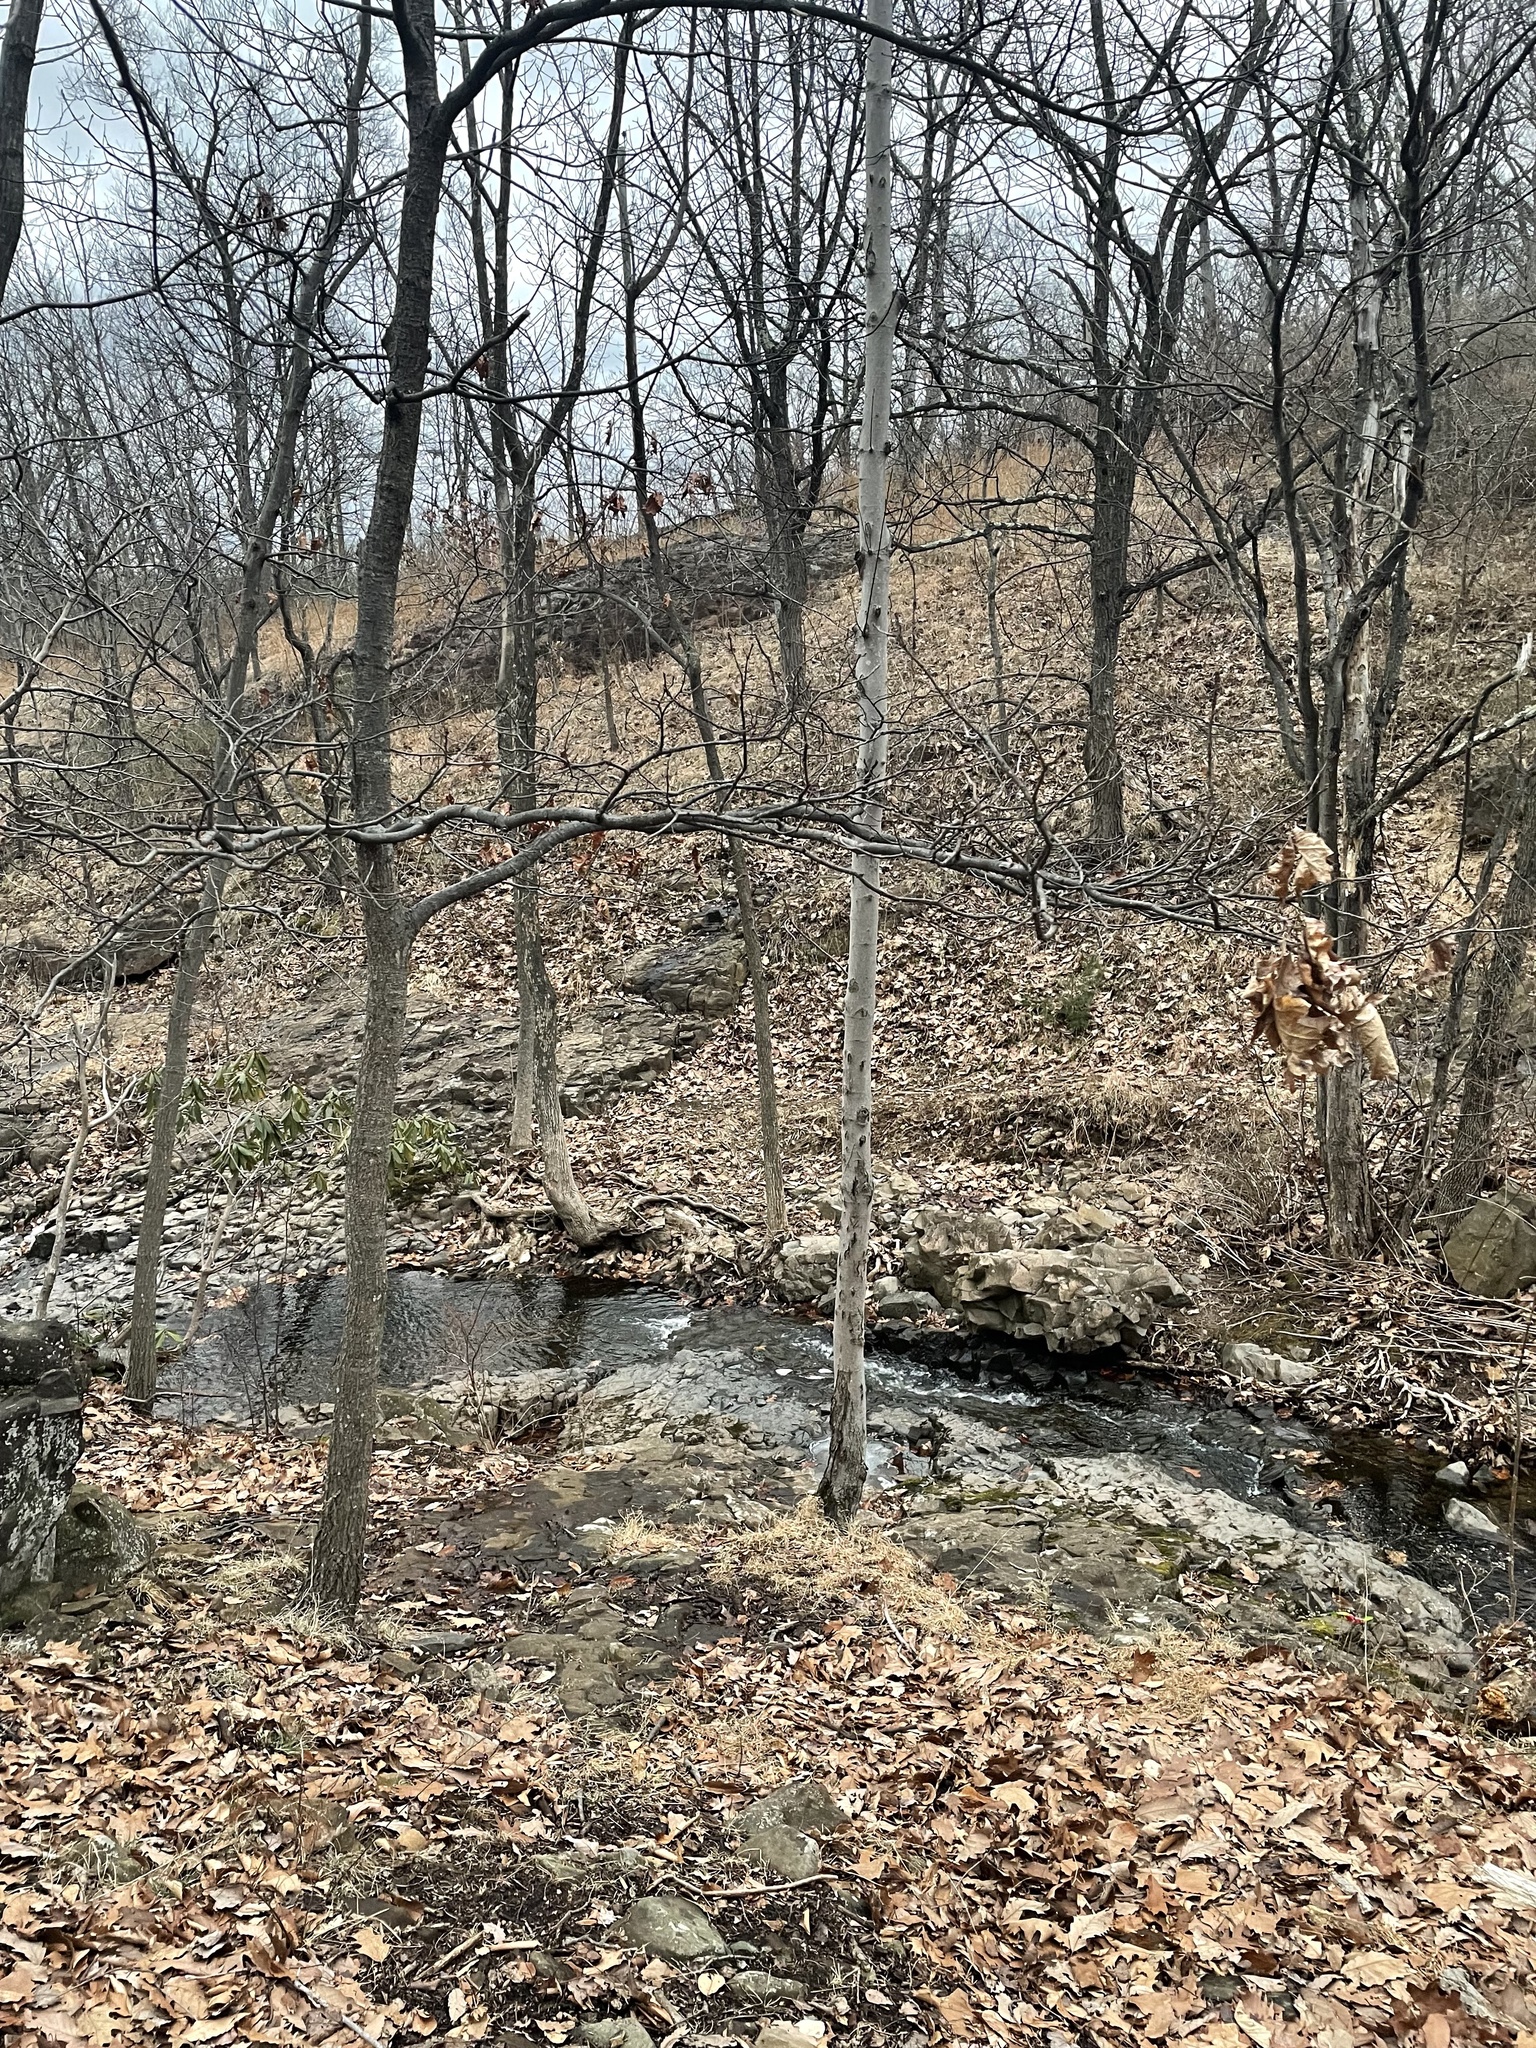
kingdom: Plantae
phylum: Tracheophyta
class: Magnoliopsida
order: Fagales
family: Fagaceae
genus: Quercus
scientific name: Quercus rubra
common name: Red oak
